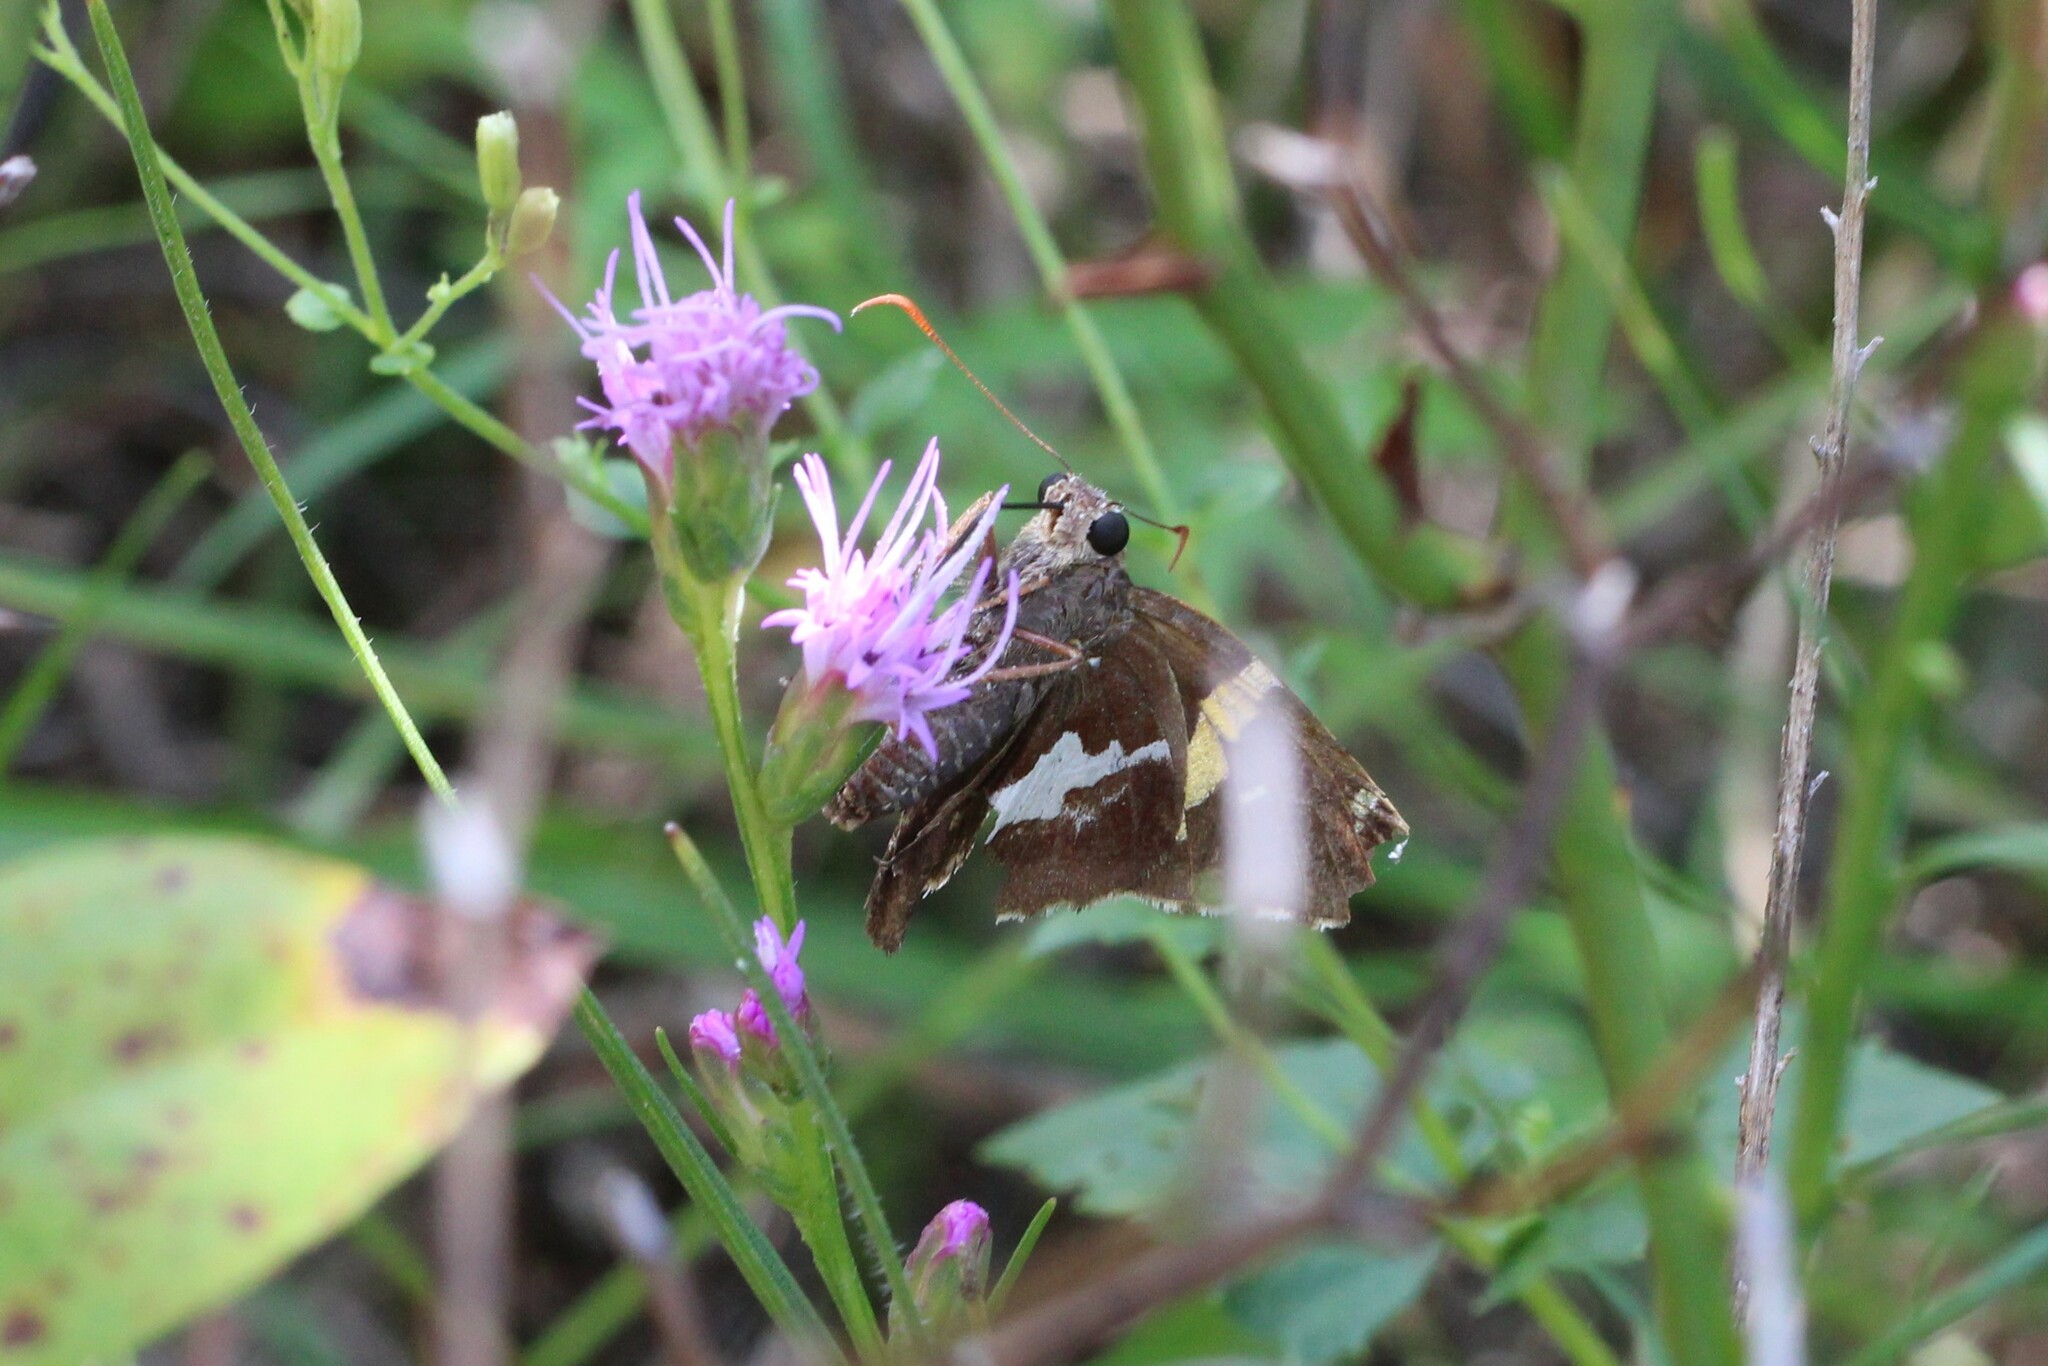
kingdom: Animalia
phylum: Arthropoda
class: Insecta
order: Lepidoptera
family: Hesperiidae
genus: Epargyreus
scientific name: Epargyreus clarus
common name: Silver-spotted skipper
